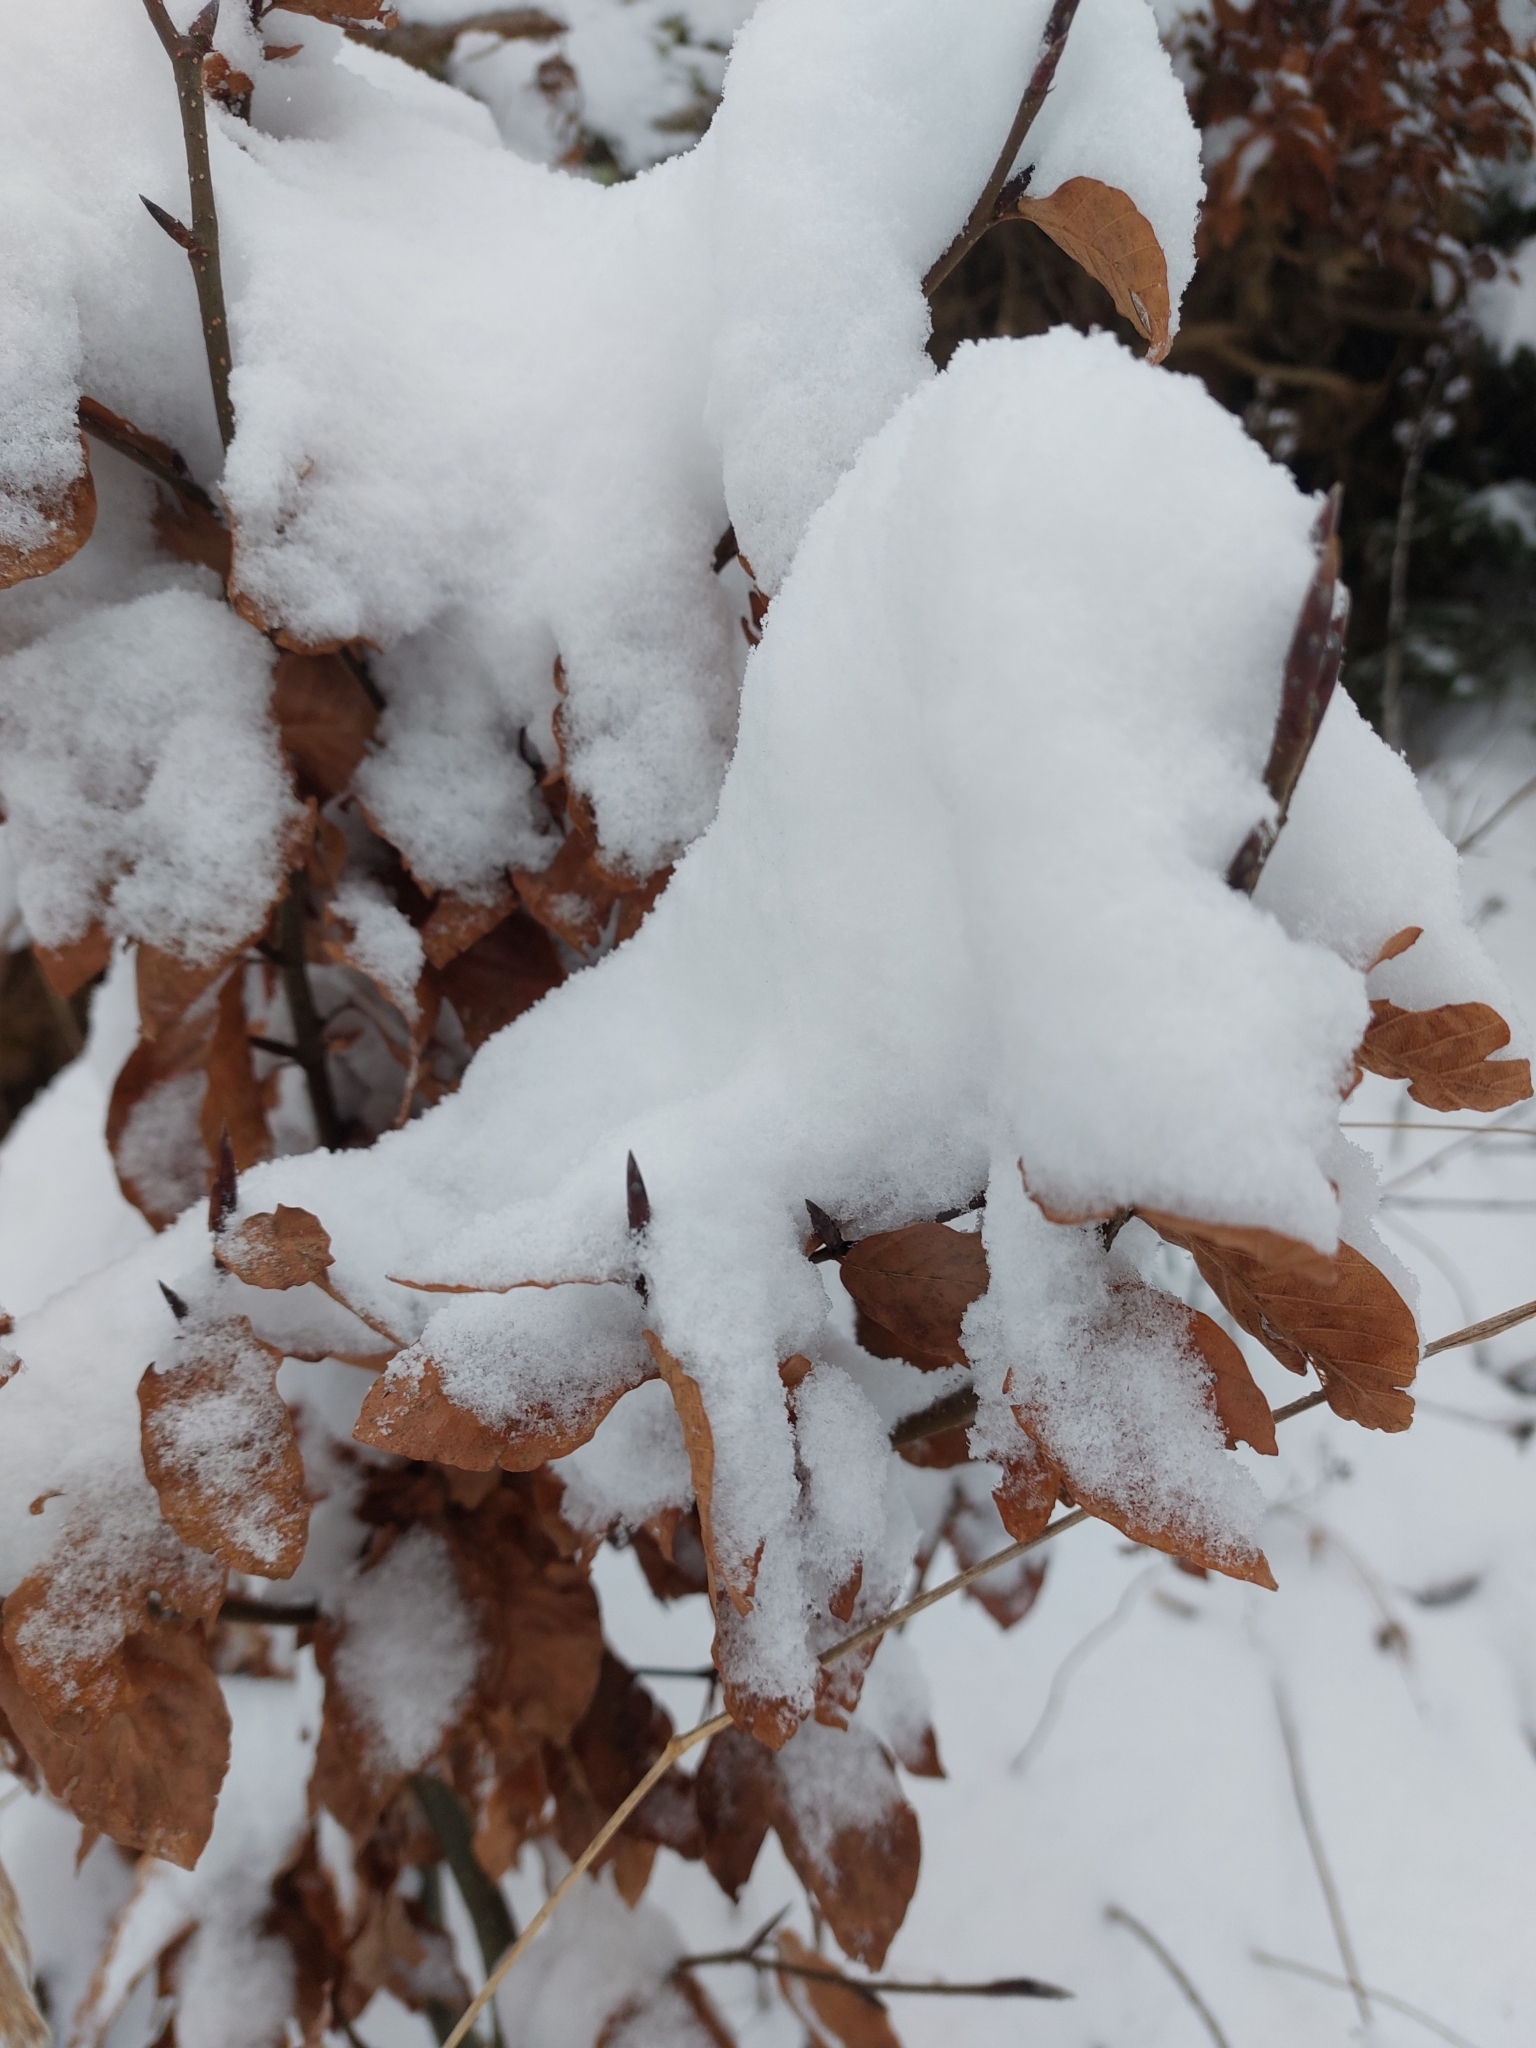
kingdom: Plantae
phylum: Tracheophyta
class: Magnoliopsida
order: Fagales
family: Fagaceae
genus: Fagus
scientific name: Fagus sylvatica
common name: Beech
